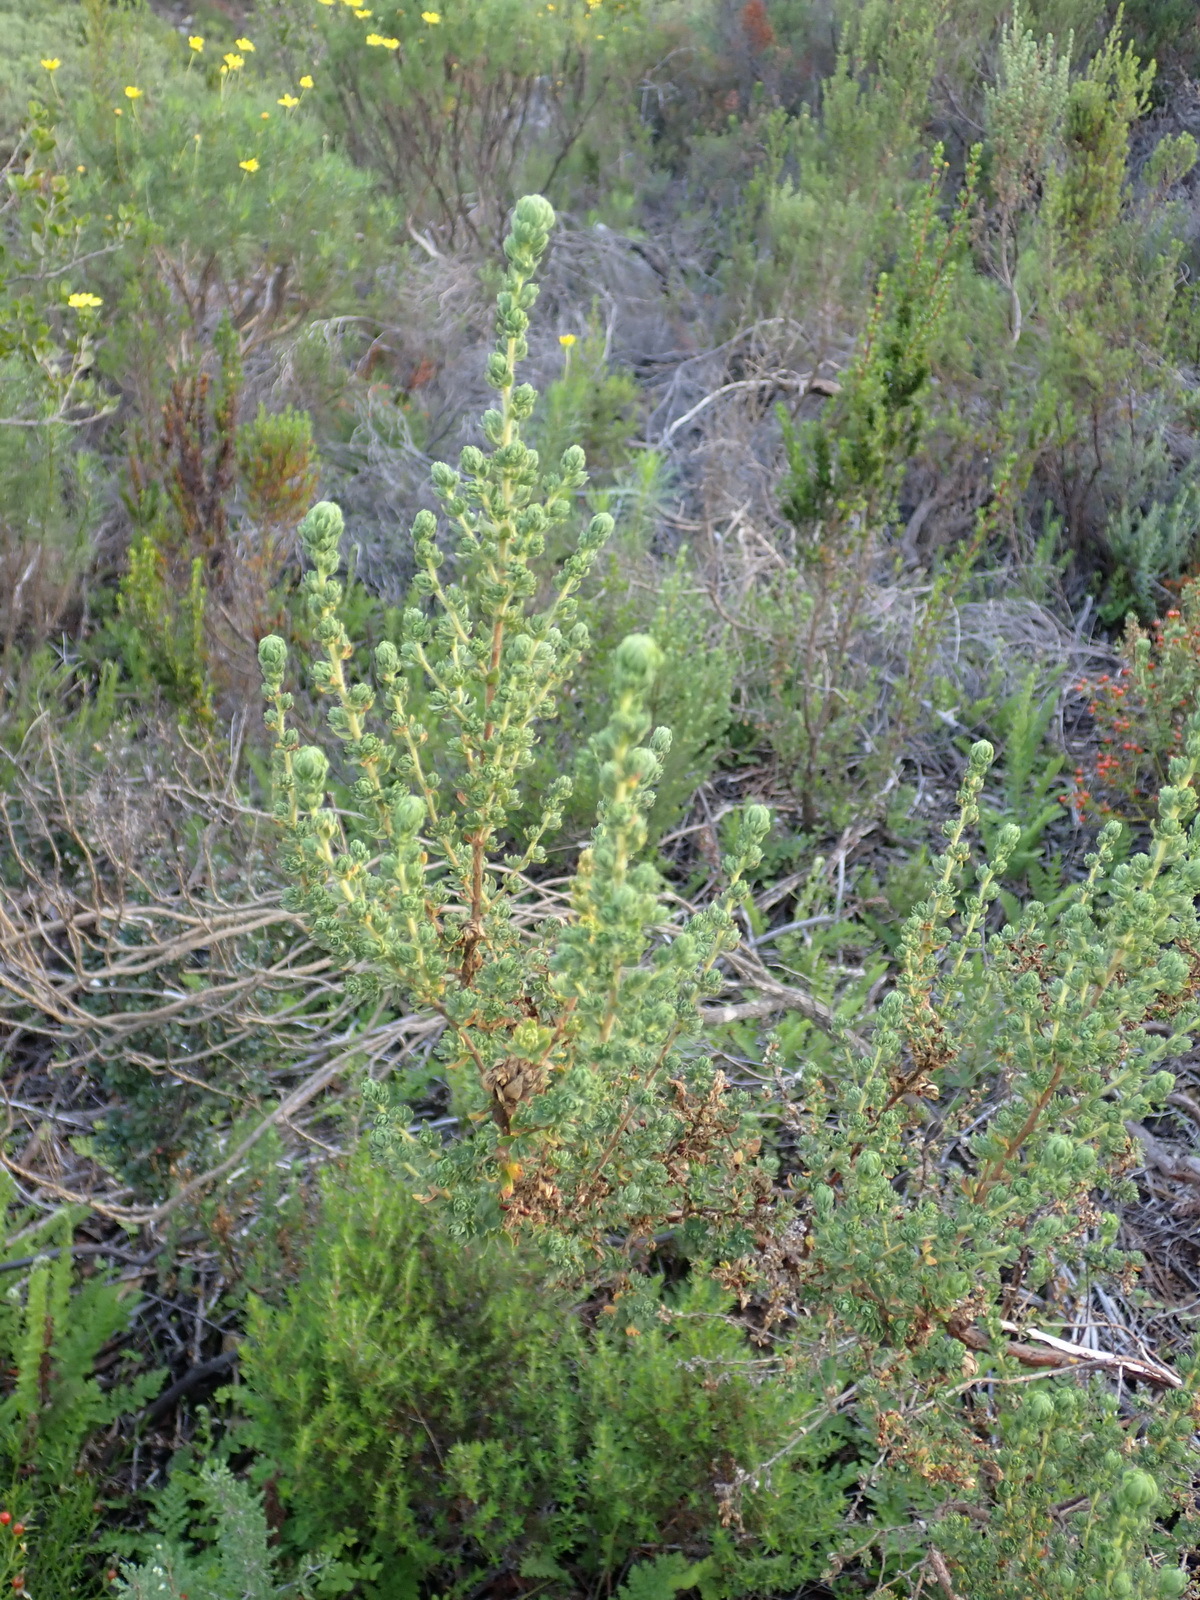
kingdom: Plantae
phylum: Tracheophyta
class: Magnoliopsida
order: Rosales
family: Rosaceae
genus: Cliffortia
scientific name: Cliffortia polygonifolia
